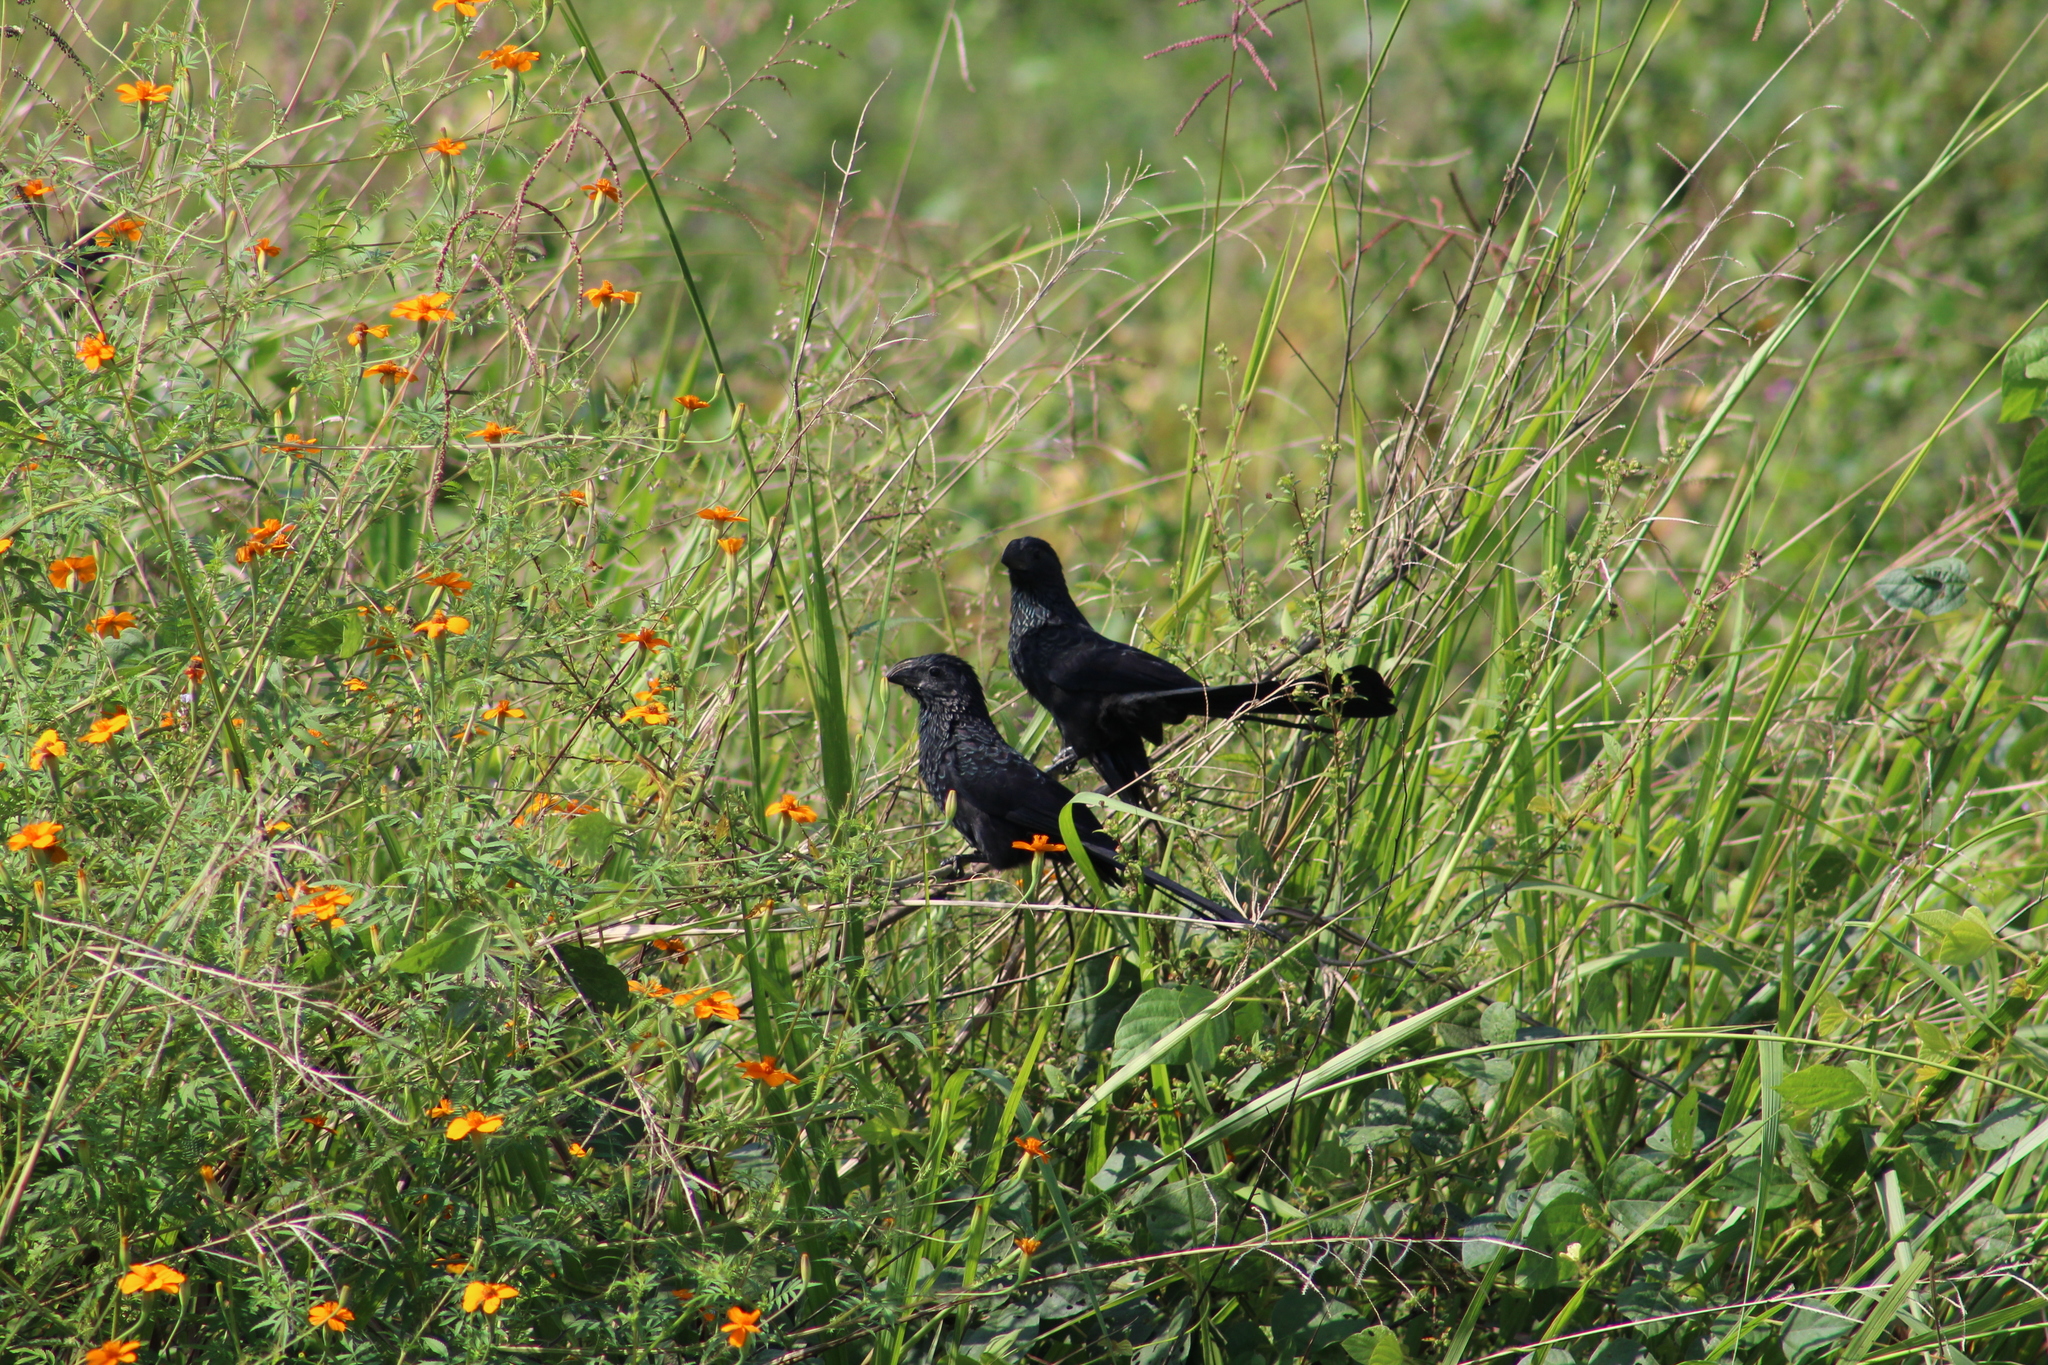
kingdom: Animalia
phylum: Chordata
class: Aves
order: Cuculiformes
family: Cuculidae
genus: Crotophaga
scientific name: Crotophaga sulcirostris
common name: Groove-billed ani
